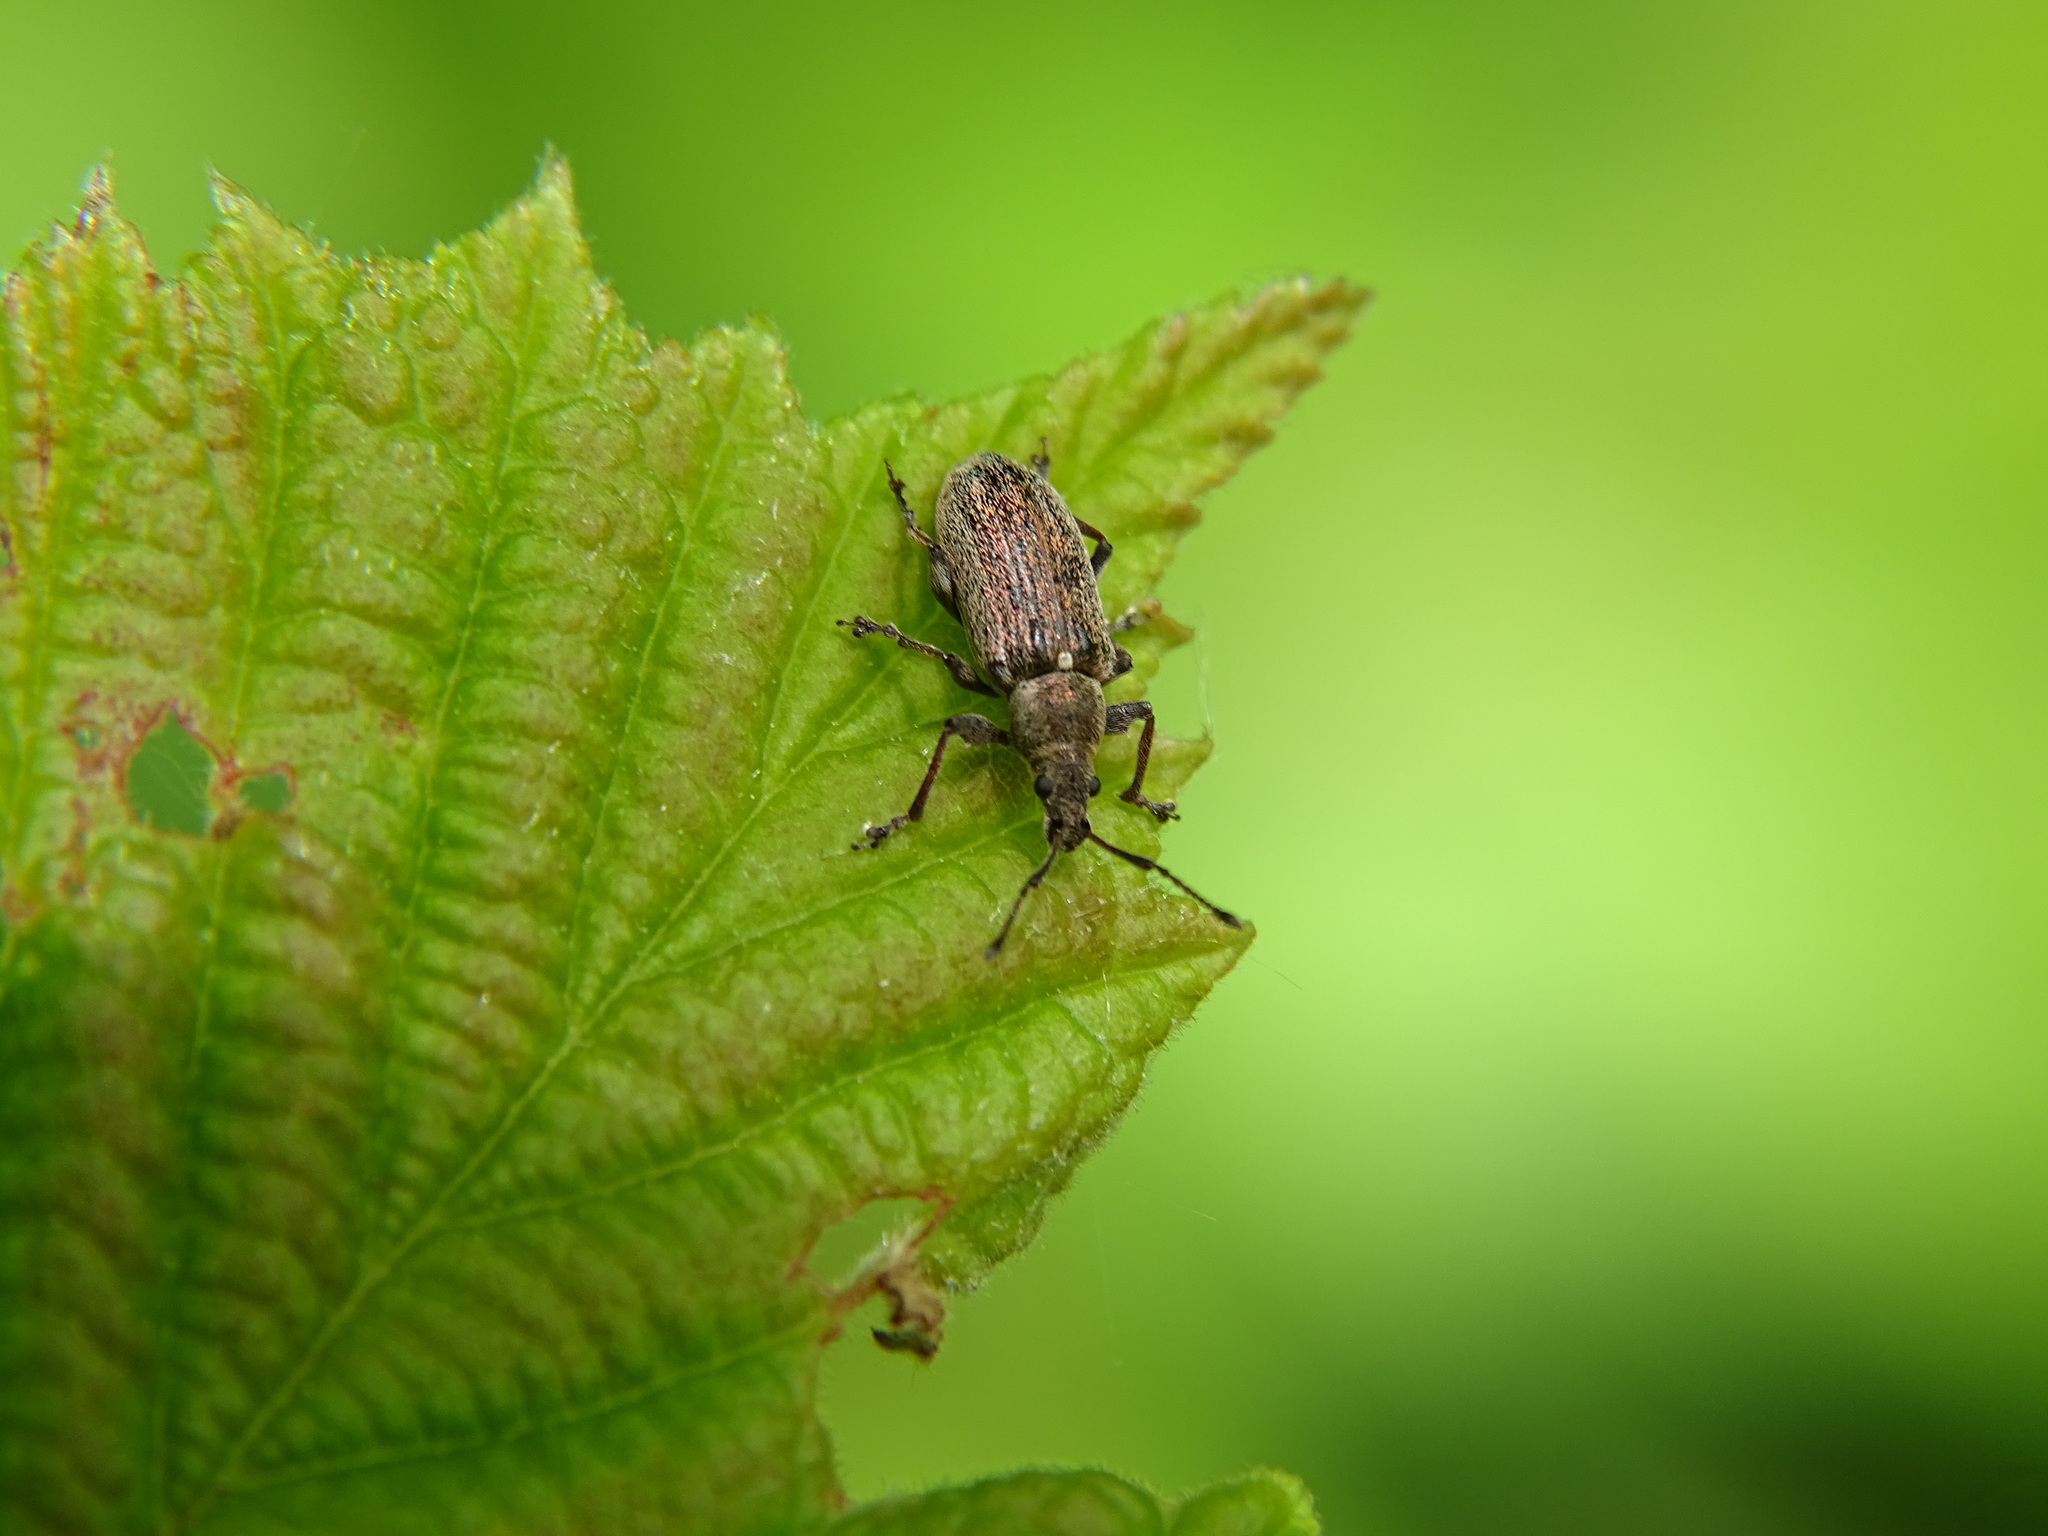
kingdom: Animalia
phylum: Arthropoda
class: Insecta
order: Coleoptera
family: Curculionidae
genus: Phyllobius
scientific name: Phyllobius pyri
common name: Common leaf weevil
